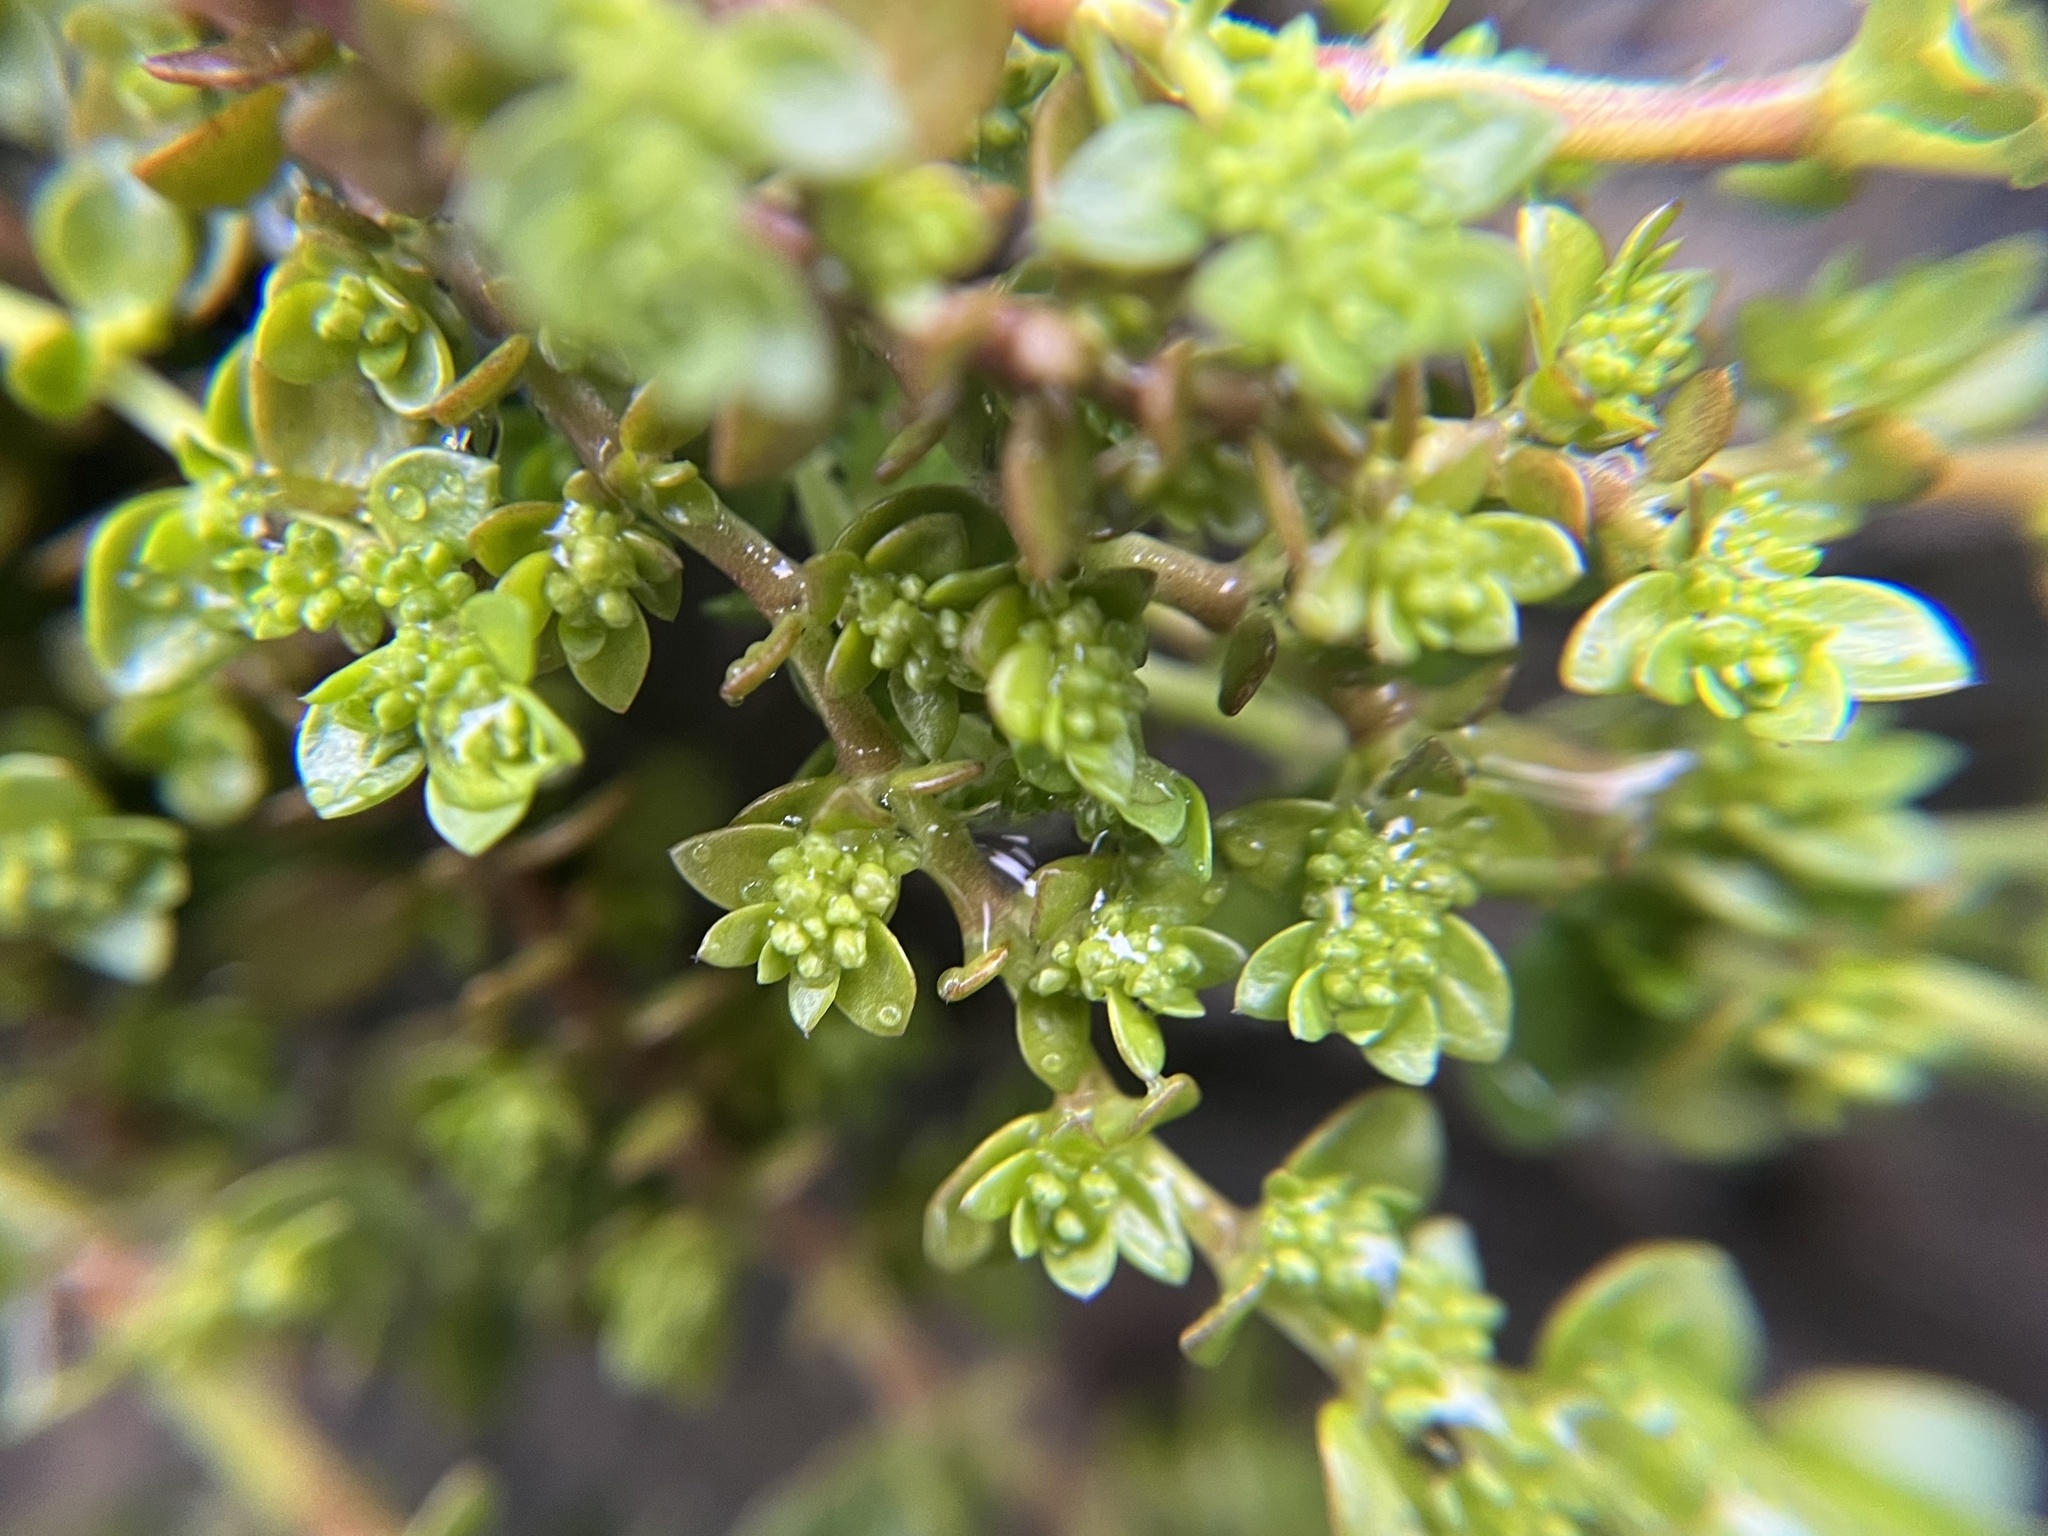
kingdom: Plantae
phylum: Tracheophyta
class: Magnoliopsida
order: Caryophyllales
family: Caryophyllaceae
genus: Herniaria
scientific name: Herniaria glabra
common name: Smooth rupturewort
